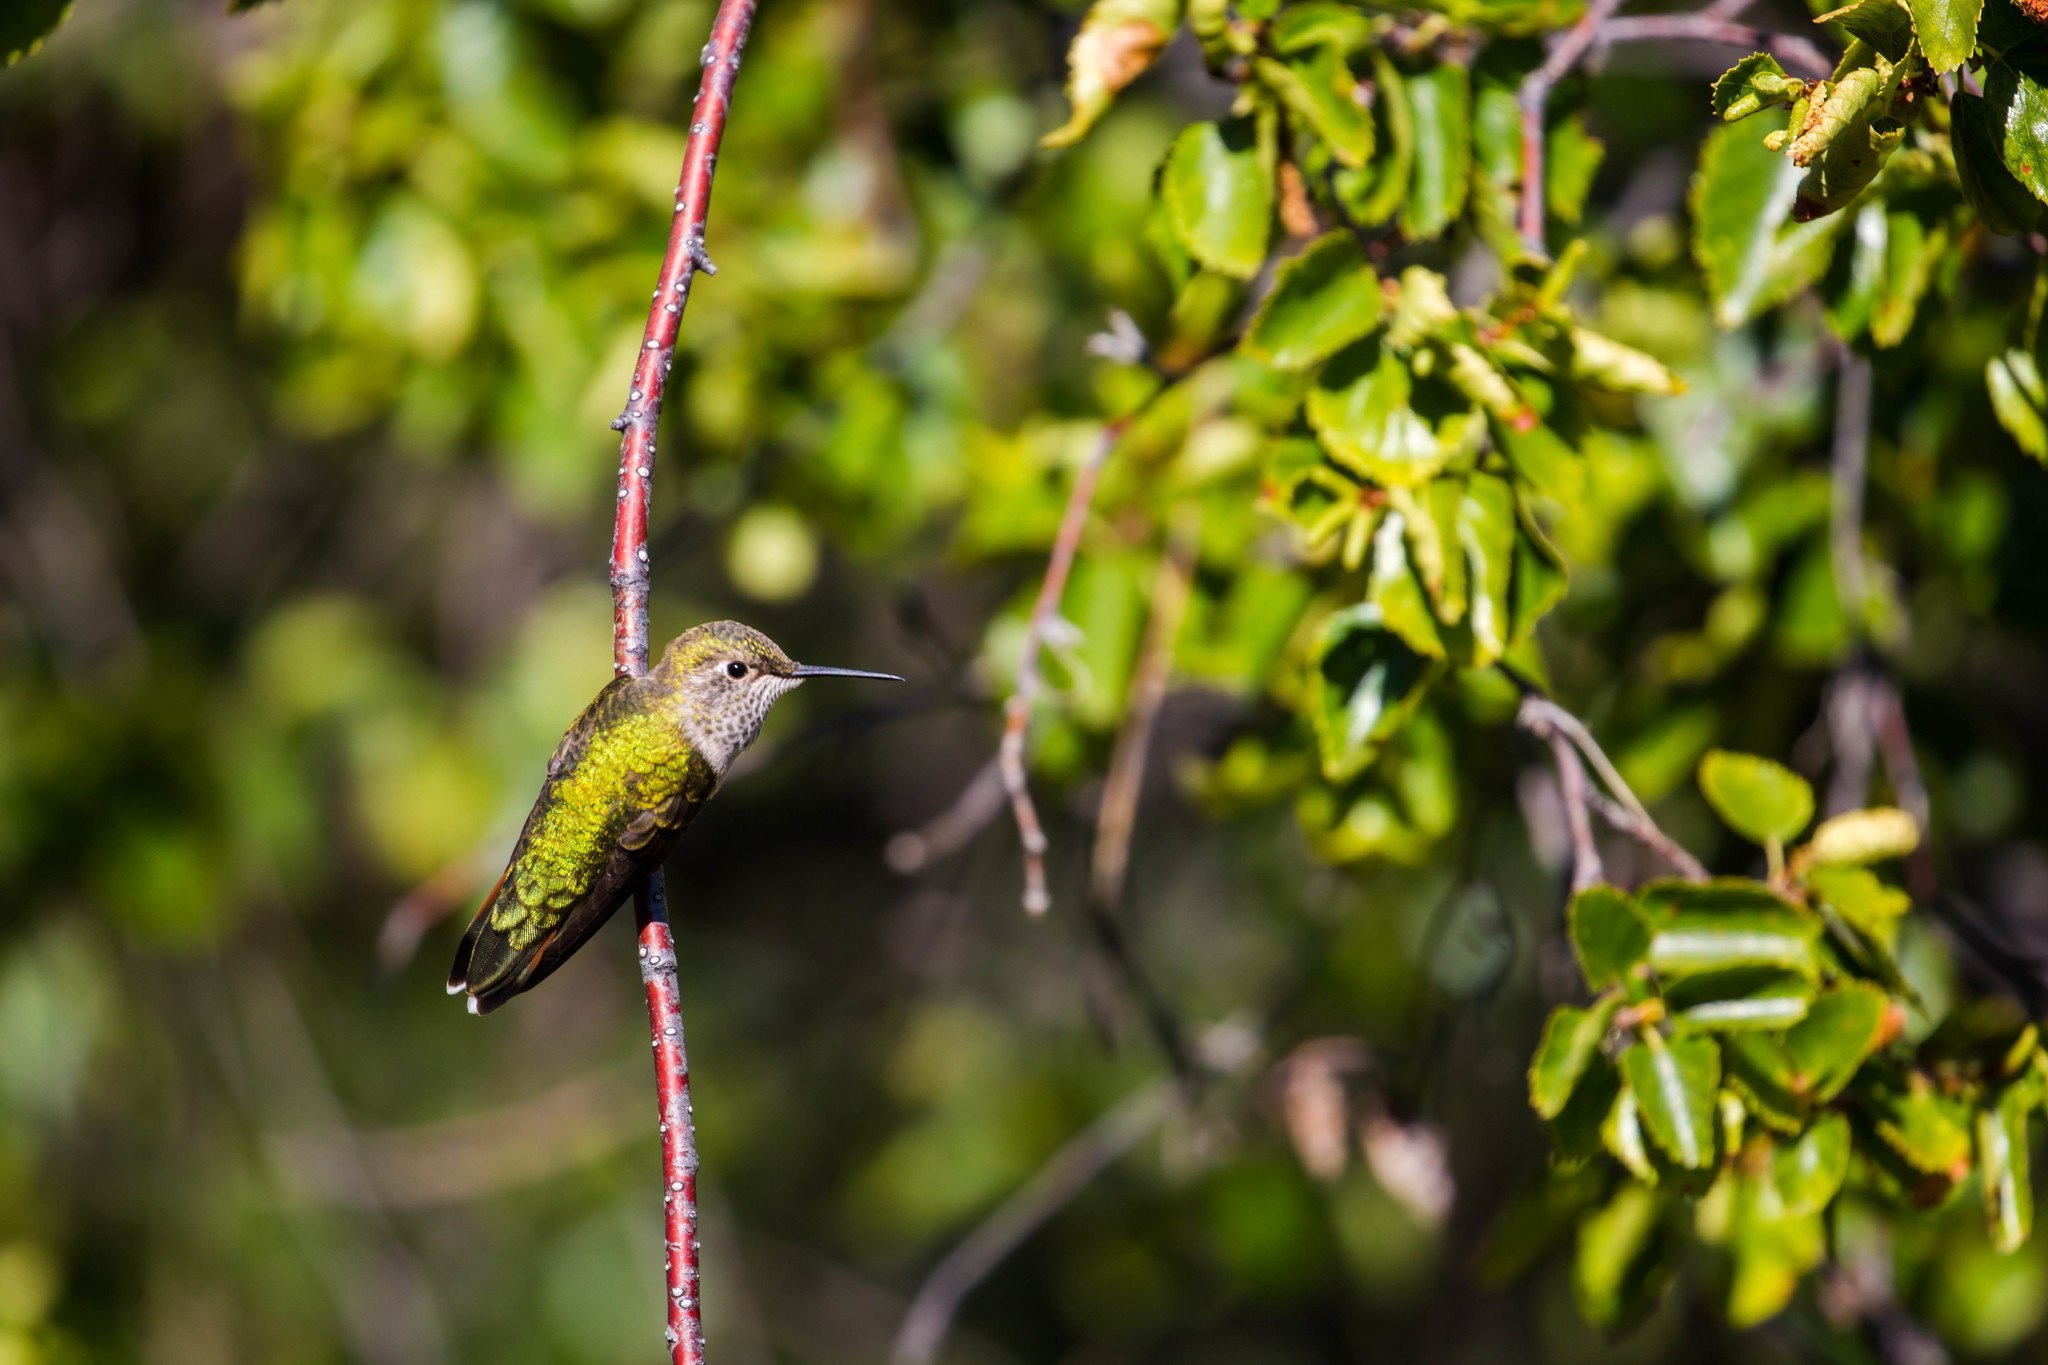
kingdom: Animalia
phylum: Chordata
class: Aves
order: Apodiformes
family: Trochilidae
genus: Selasphorus
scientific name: Selasphorus platycercus
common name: Broad-tailed hummingbird
